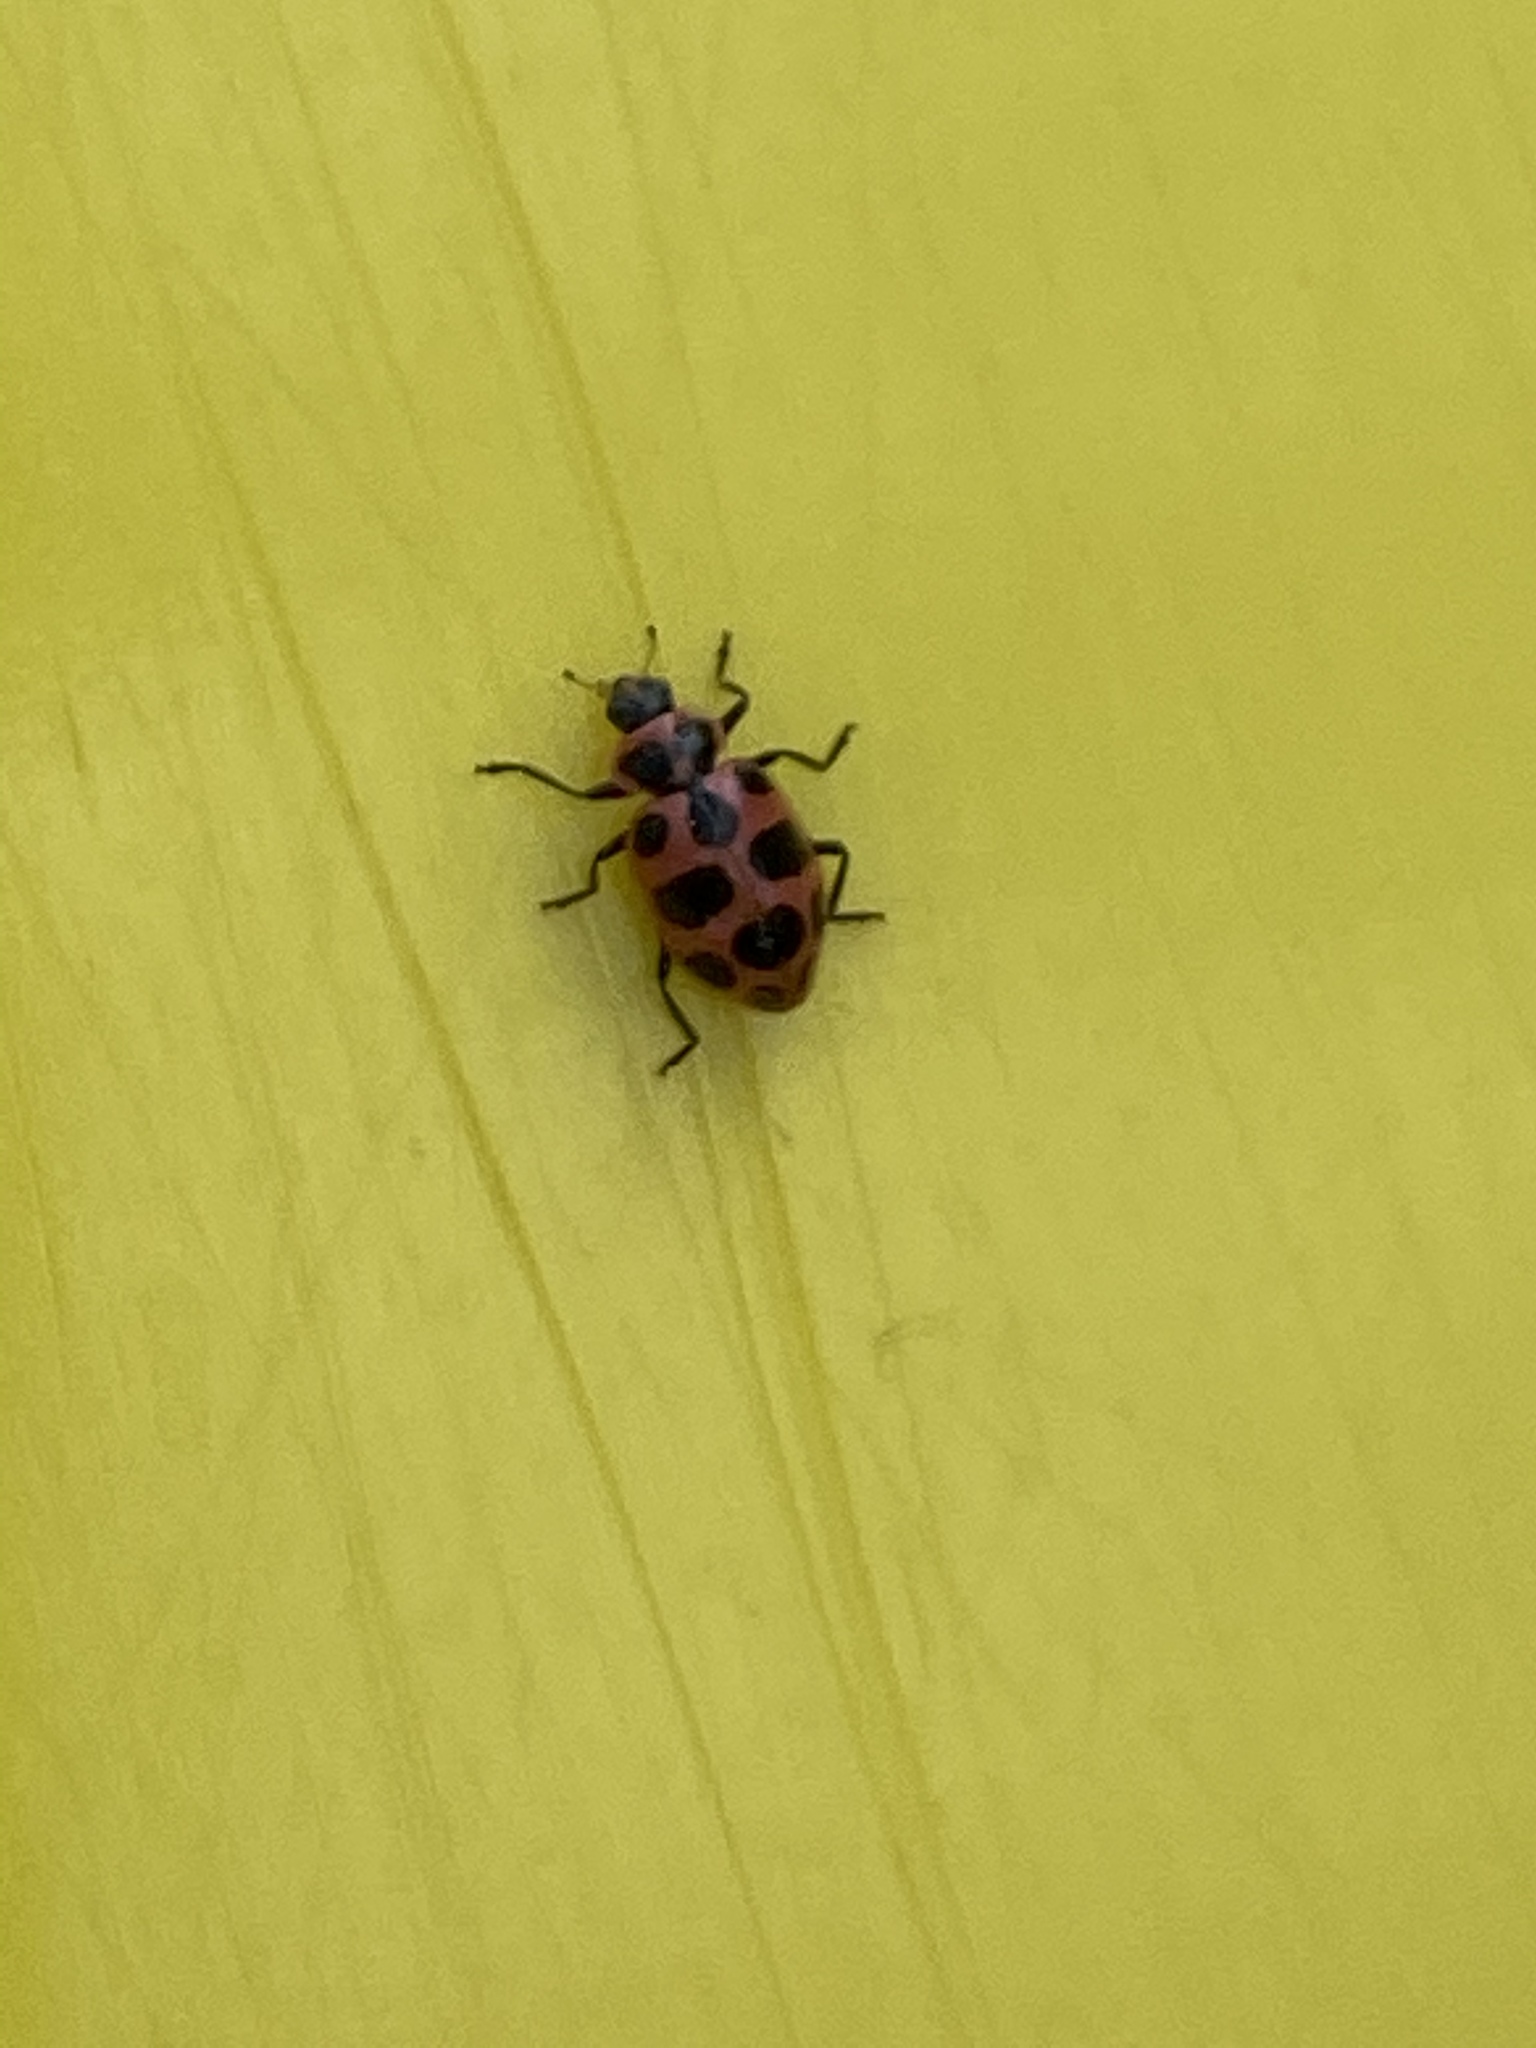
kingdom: Animalia
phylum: Arthropoda
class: Insecta
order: Coleoptera
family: Coccinellidae
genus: Coleomegilla
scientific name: Coleomegilla maculata
